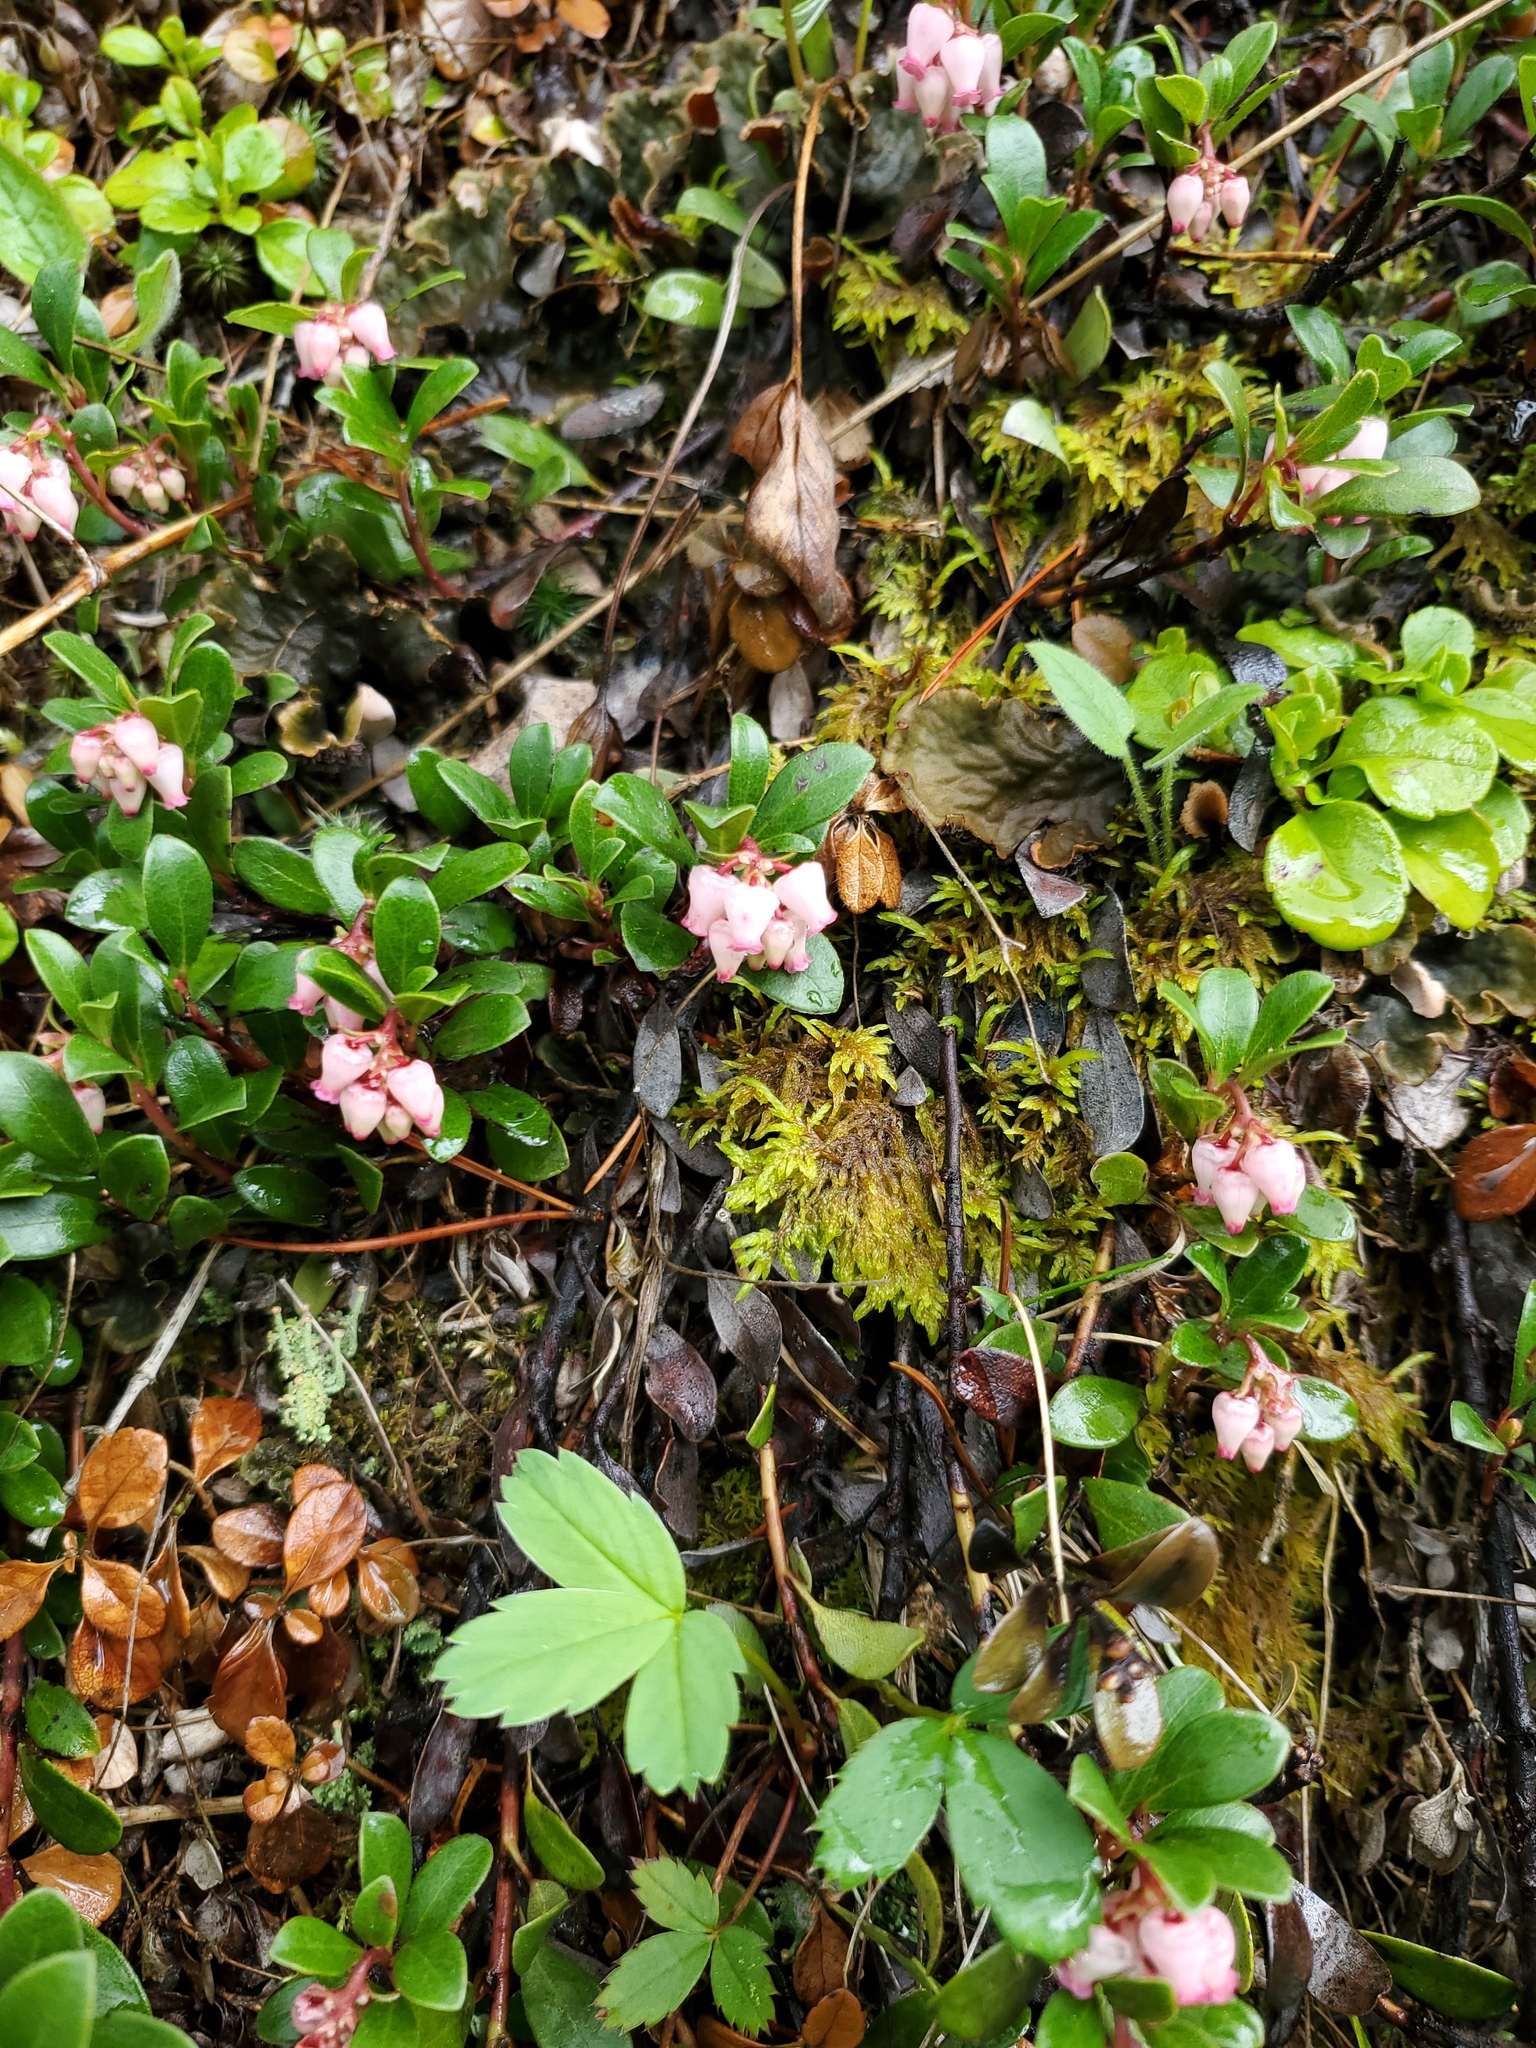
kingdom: Plantae
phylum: Tracheophyta
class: Magnoliopsida
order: Ericales
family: Ericaceae
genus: Arctostaphylos
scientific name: Arctostaphylos uva-ursi
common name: Bearberry
